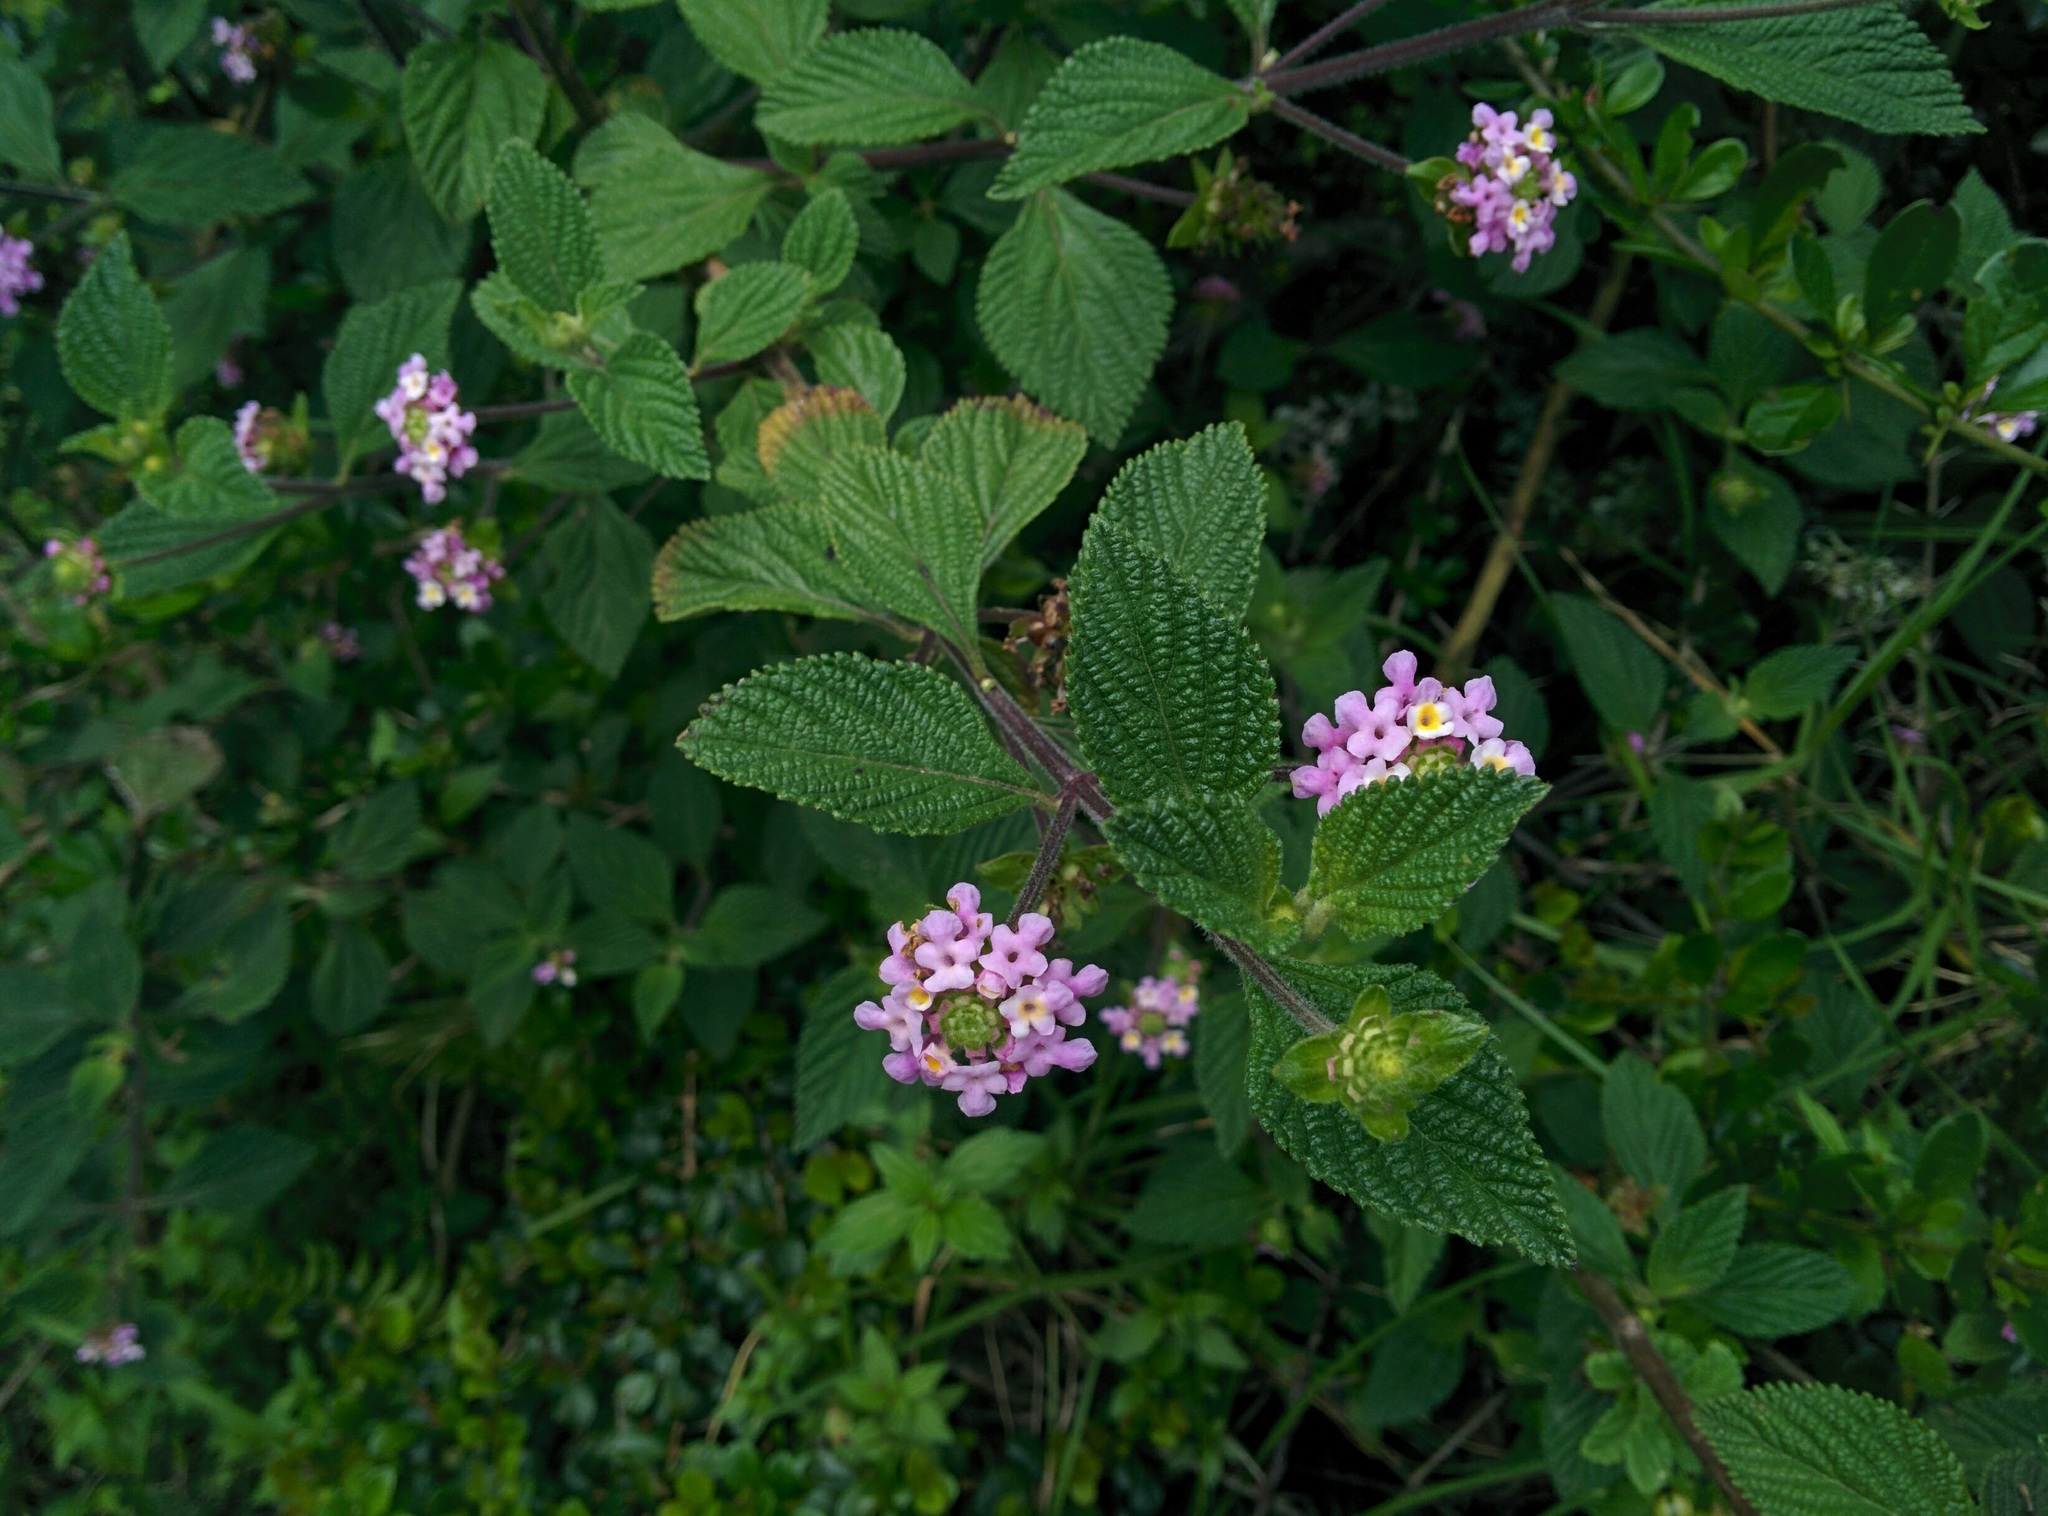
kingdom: Plantae
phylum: Tracheophyta
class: Magnoliopsida
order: Lamiales
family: Verbenaceae
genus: Lantana
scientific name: Lantana camara
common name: Lantana
